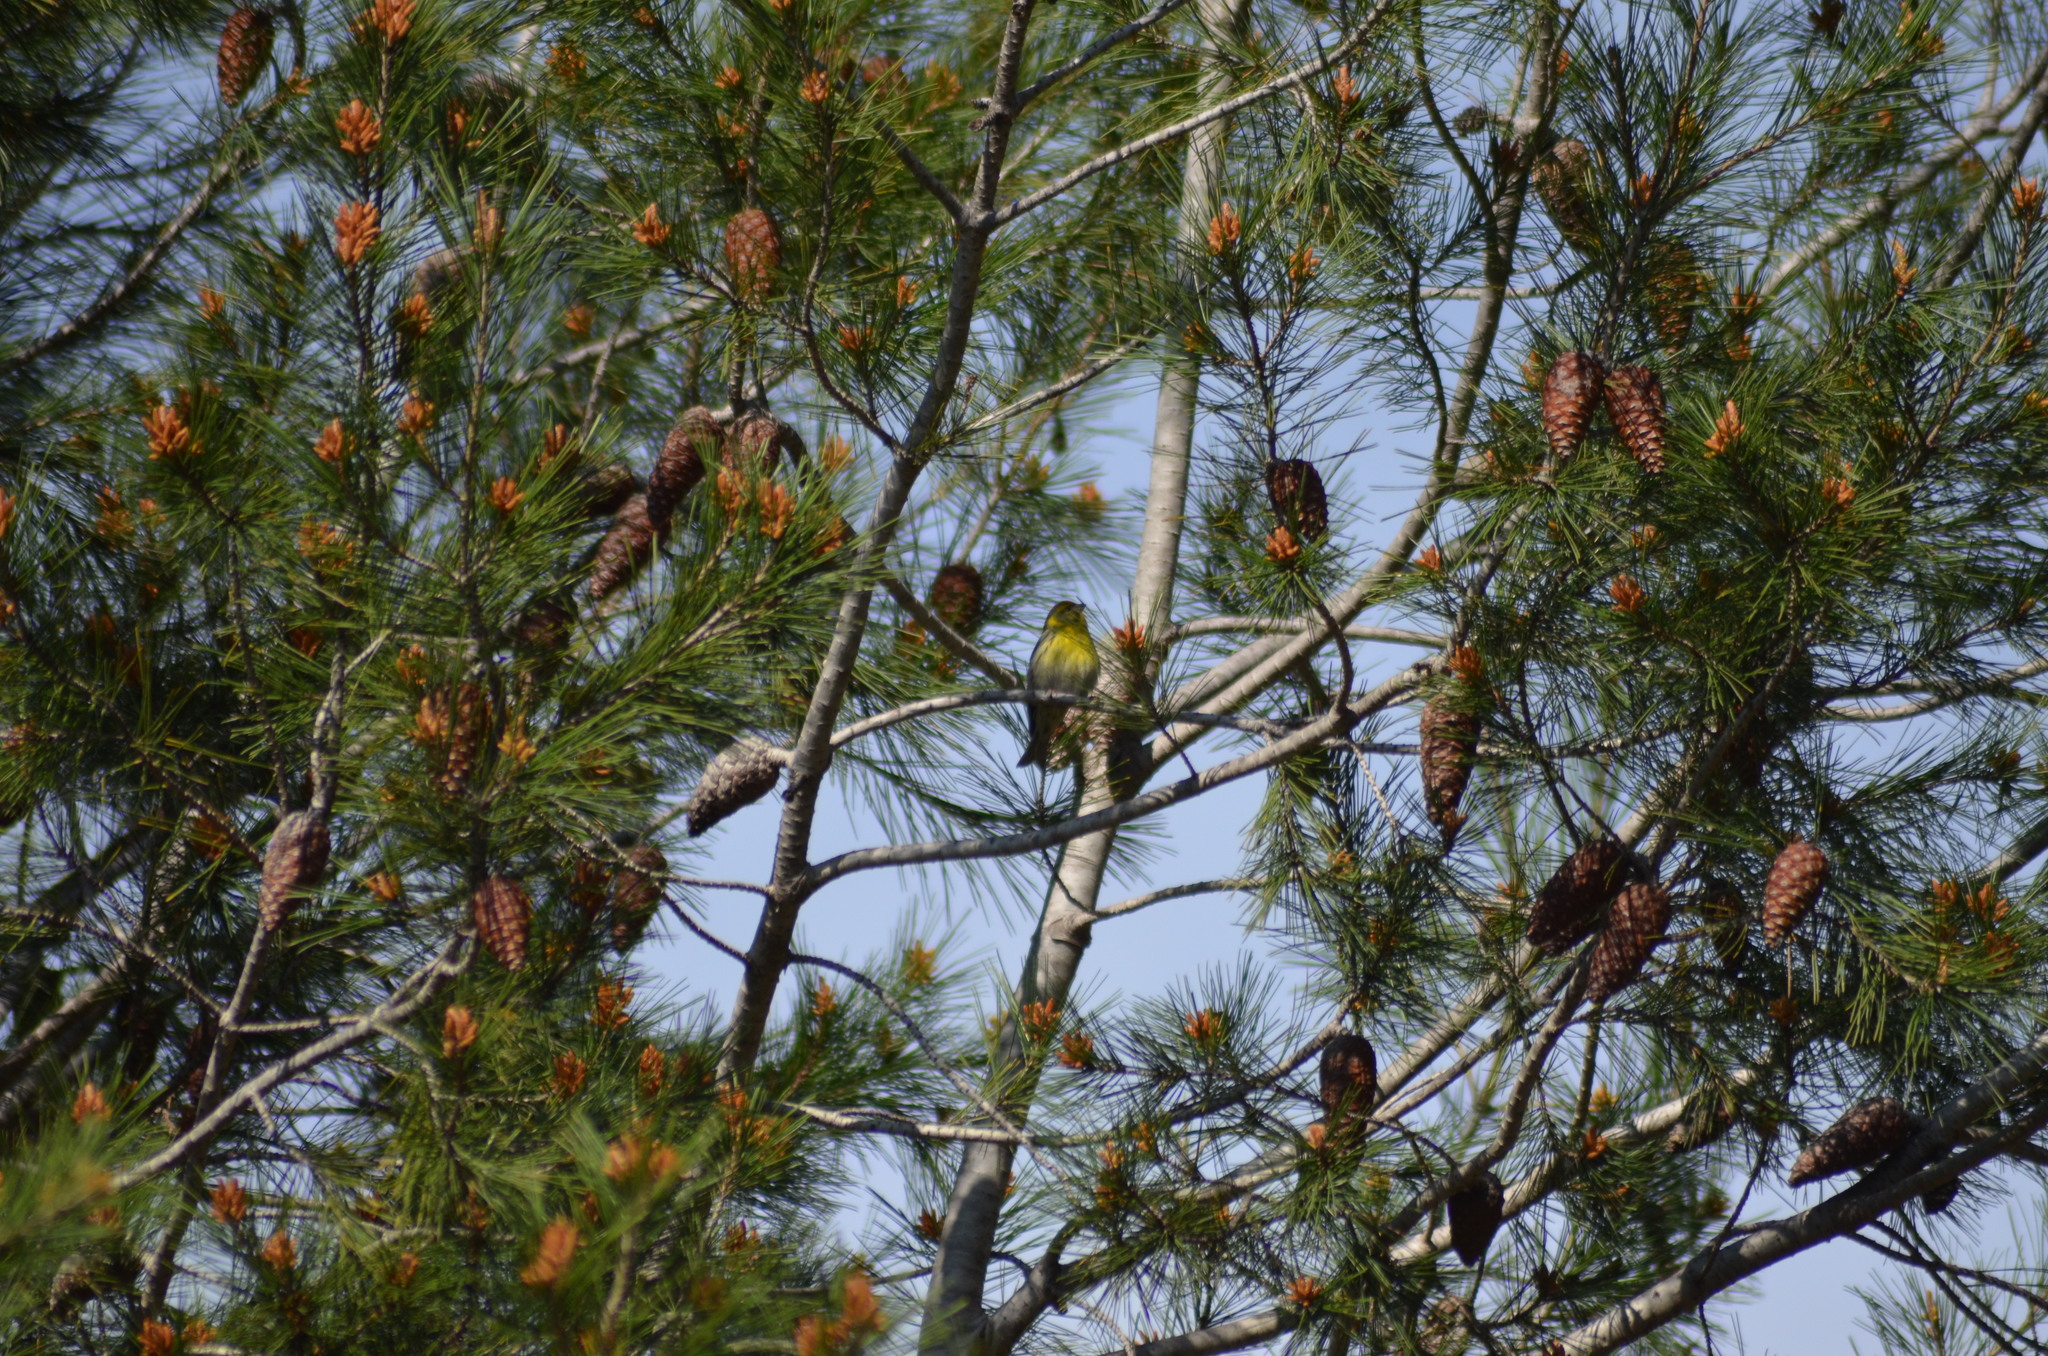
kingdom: Animalia
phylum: Chordata
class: Aves
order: Passeriformes
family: Fringillidae
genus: Serinus
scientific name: Serinus serinus
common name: European serin
